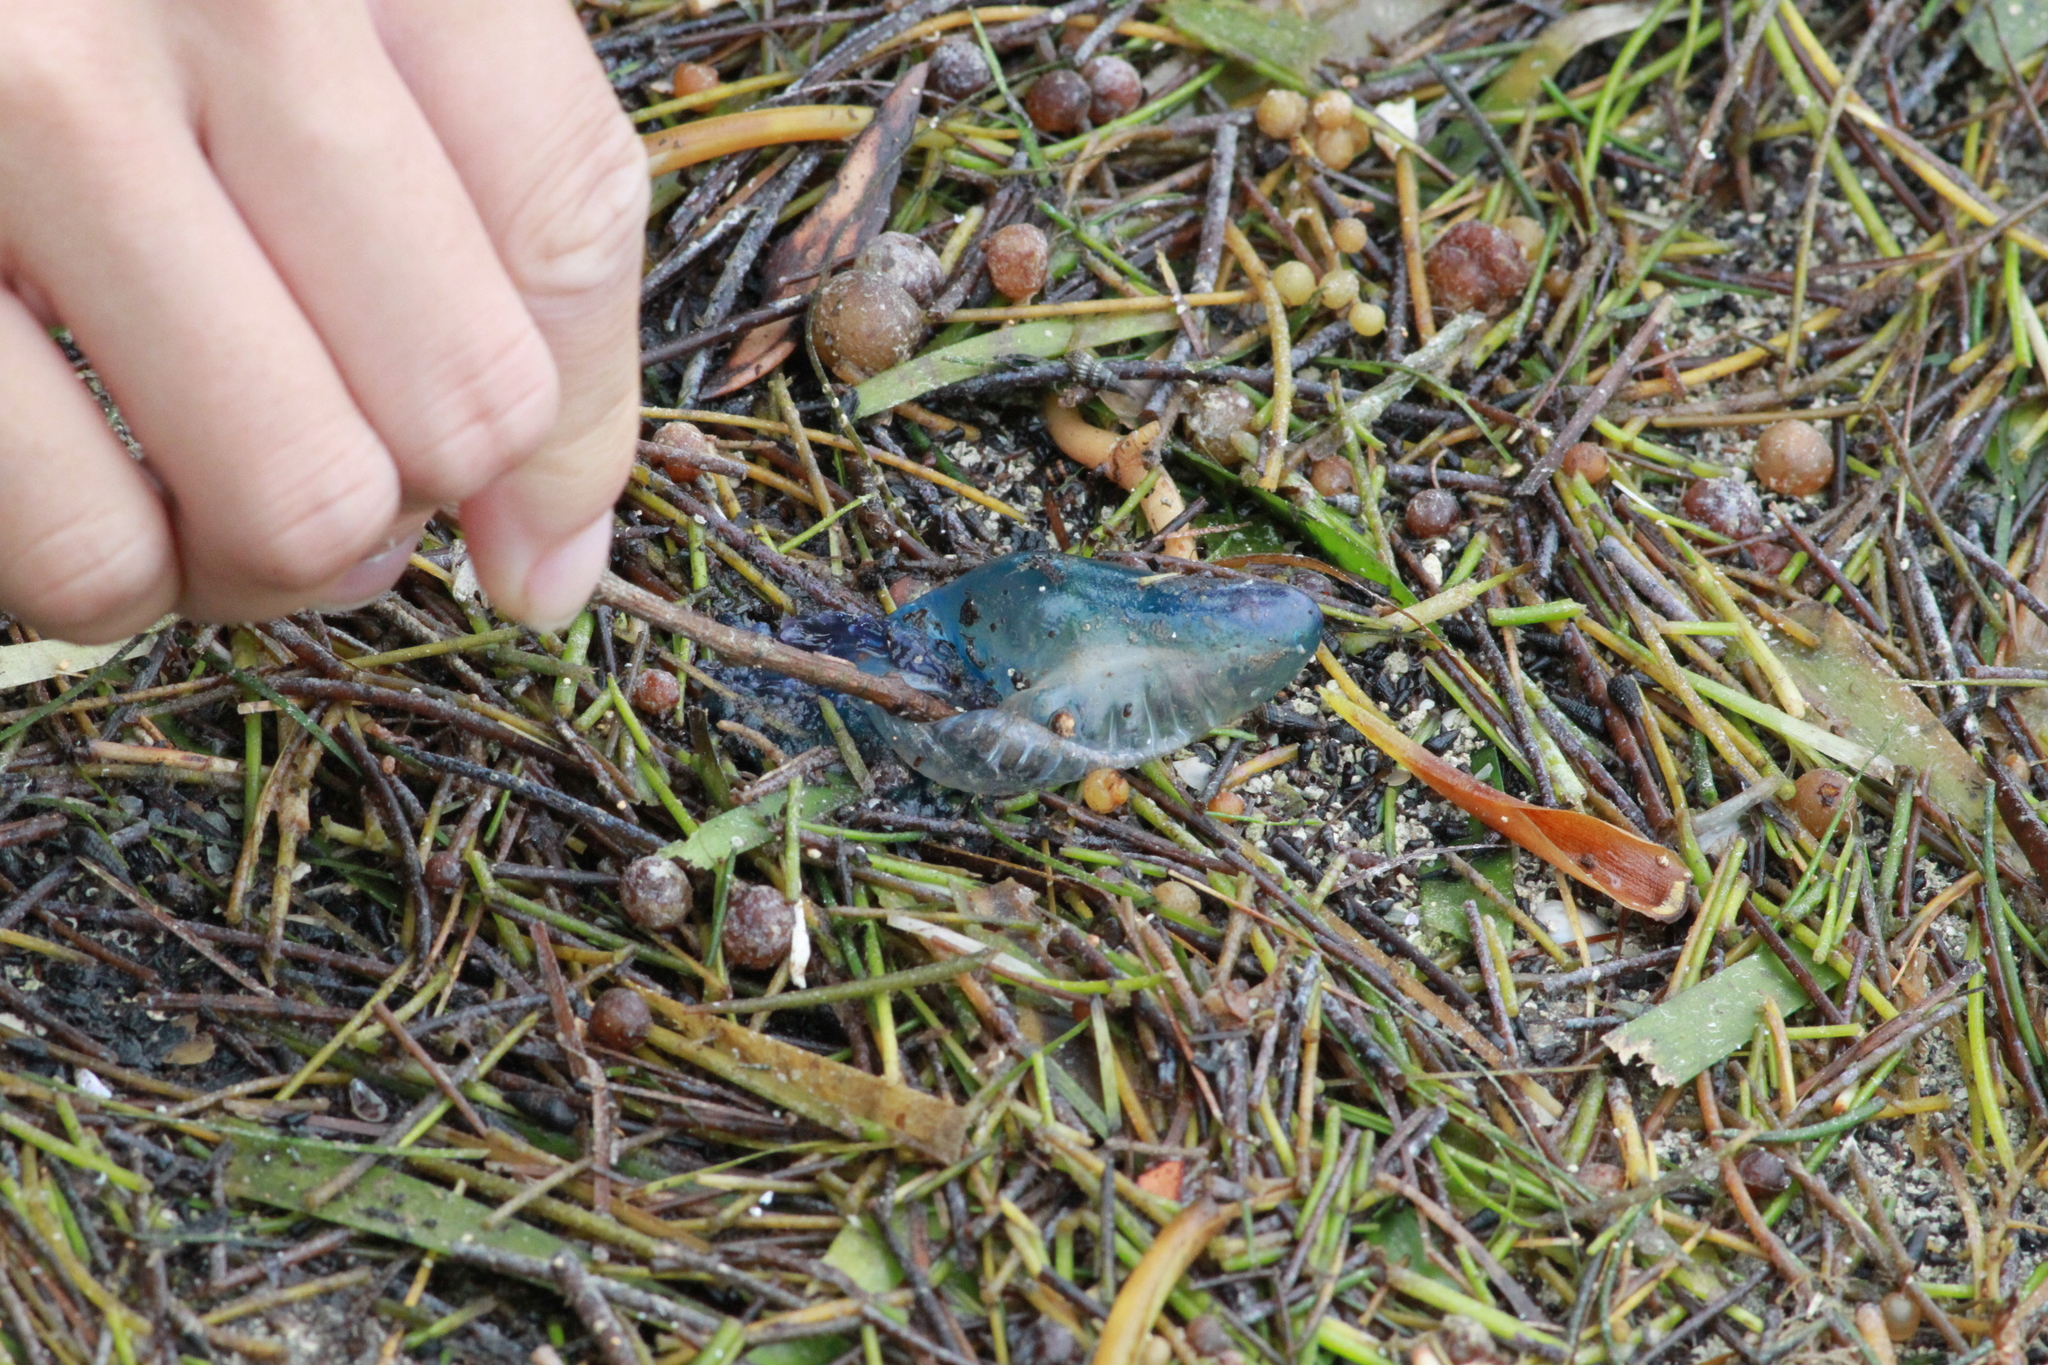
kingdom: Animalia
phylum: Cnidaria
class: Hydrozoa
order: Siphonophorae
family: Physaliidae
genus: Physalia
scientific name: Physalia physalis
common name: Portuguese man-of-war
